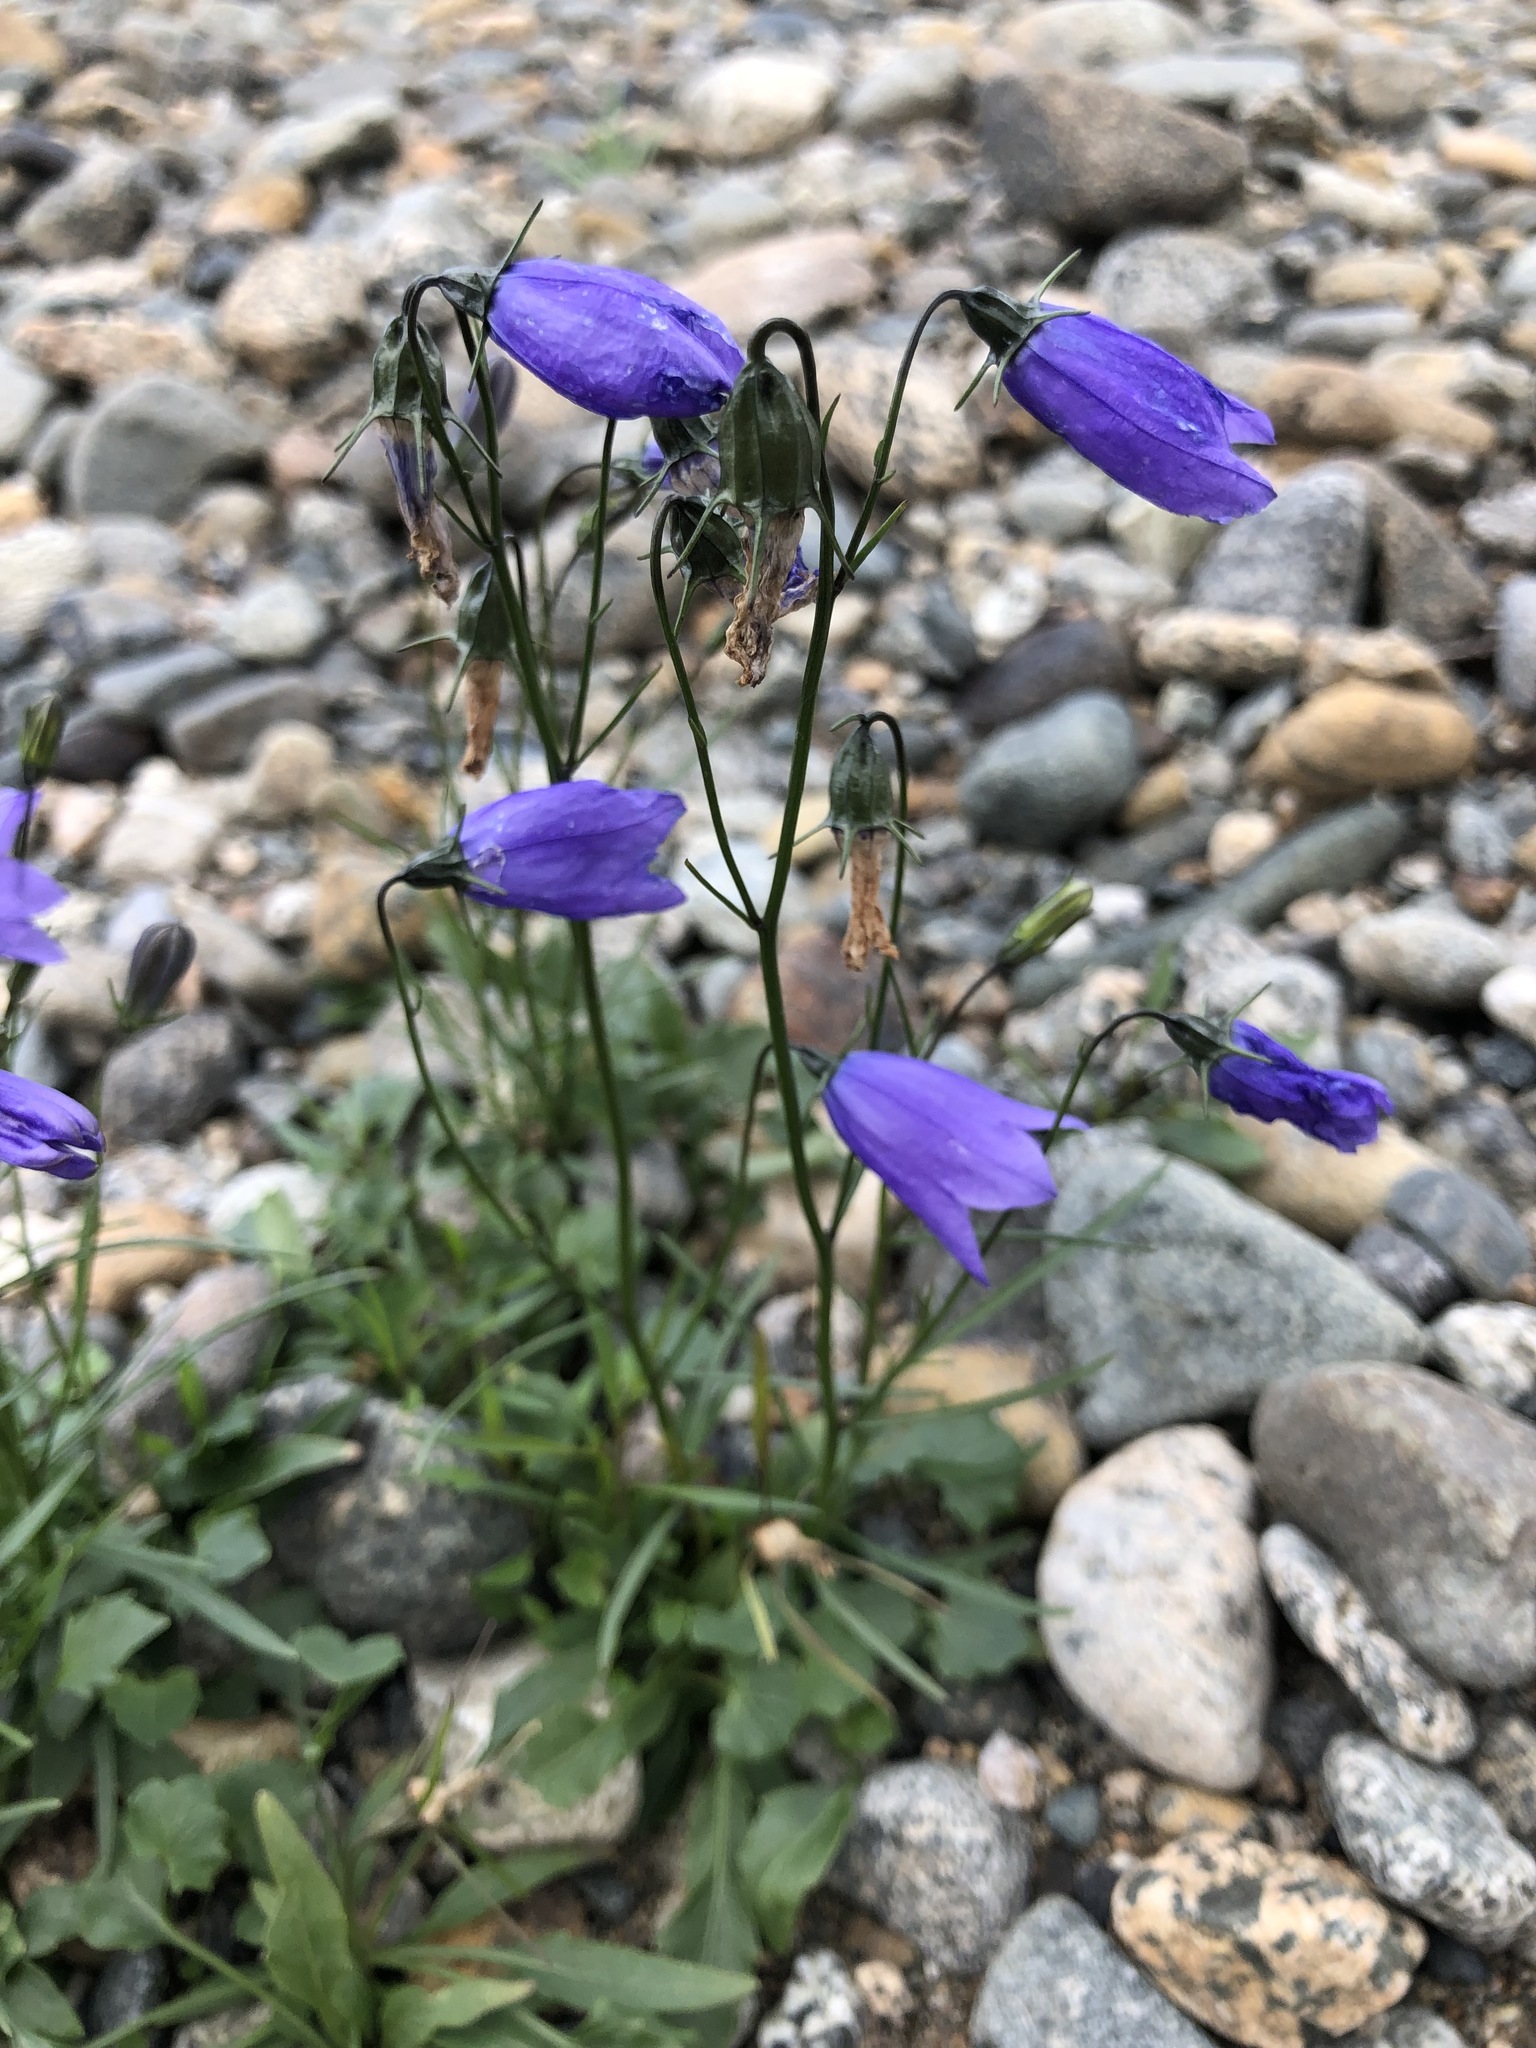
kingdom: Plantae
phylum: Tracheophyta
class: Magnoliopsida
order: Asterales
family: Campanulaceae
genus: Campanula
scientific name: Campanula rotundifolia
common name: Harebell
